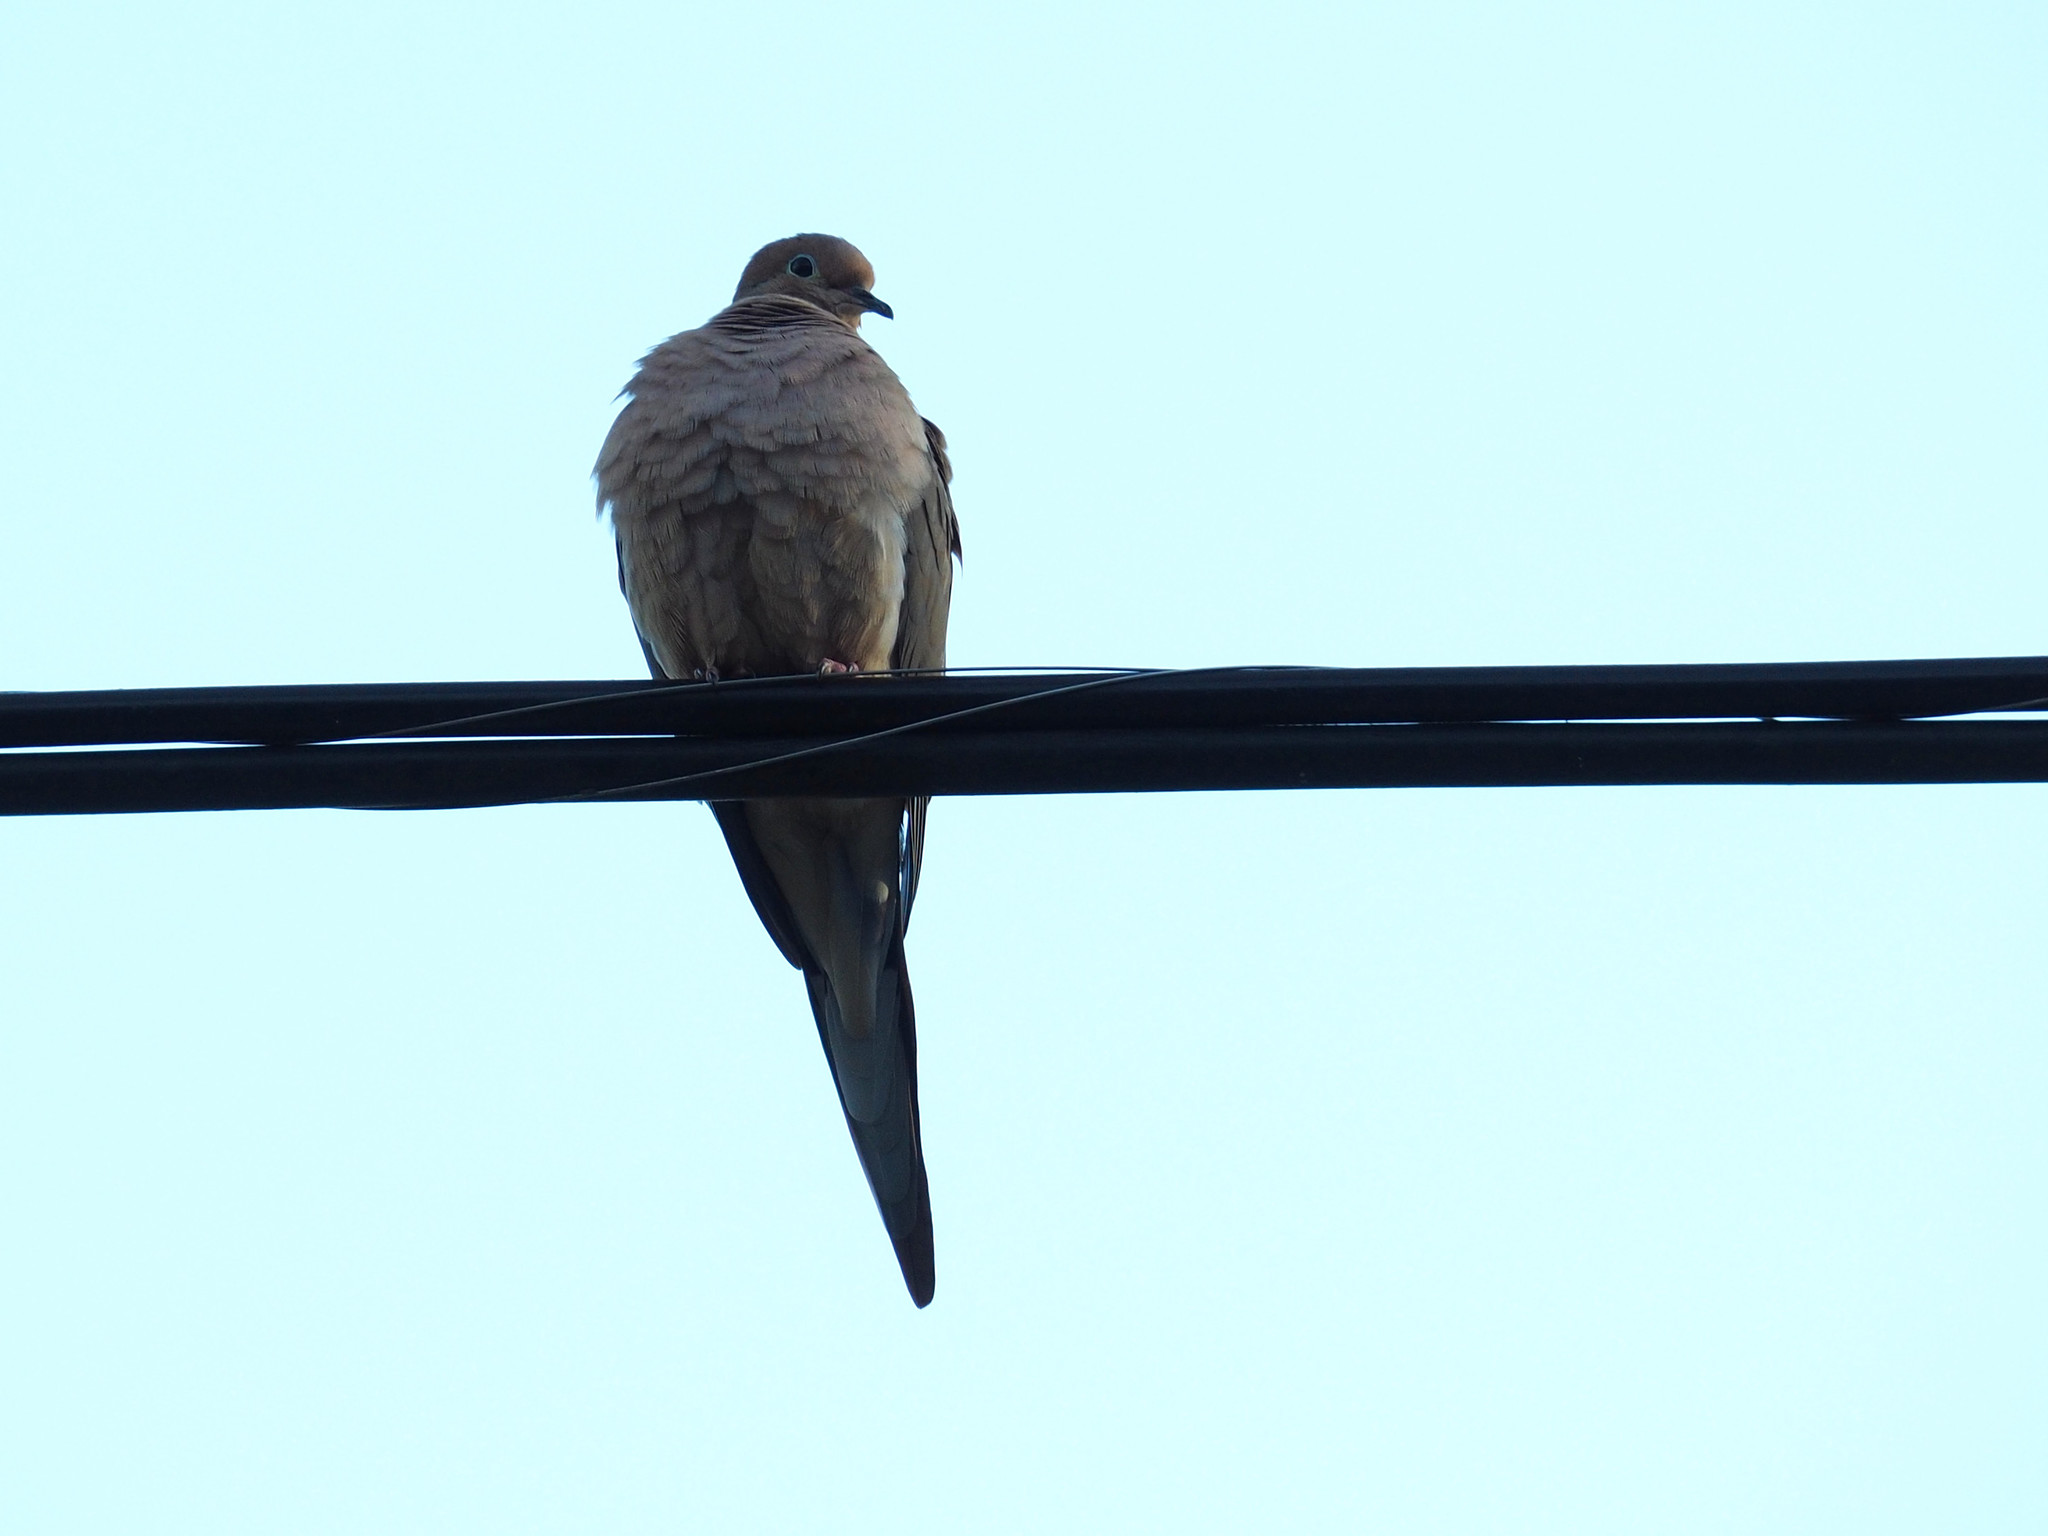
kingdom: Animalia
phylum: Chordata
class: Aves
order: Columbiformes
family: Columbidae
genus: Zenaida
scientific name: Zenaida macroura
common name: Mourning dove
